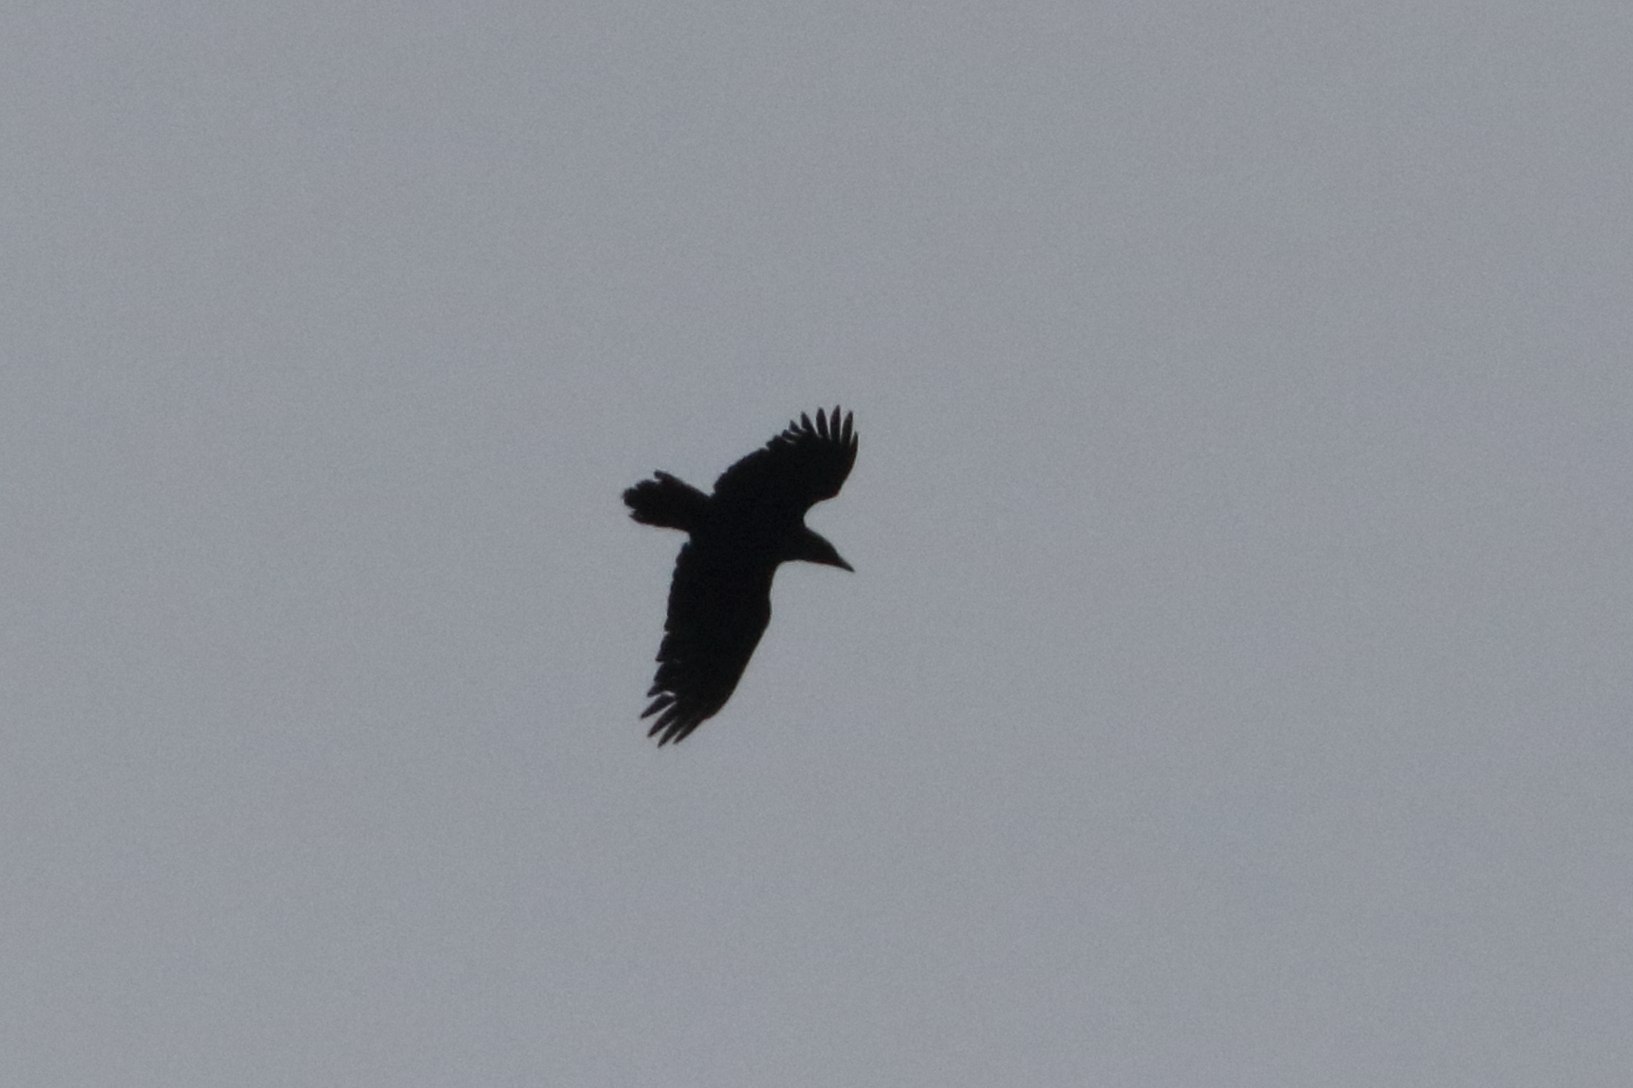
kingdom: Animalia
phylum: Chordata
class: Aves
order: Passeriformes
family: Corvidae
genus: Corvus
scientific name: Corvus corax
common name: Common raven
